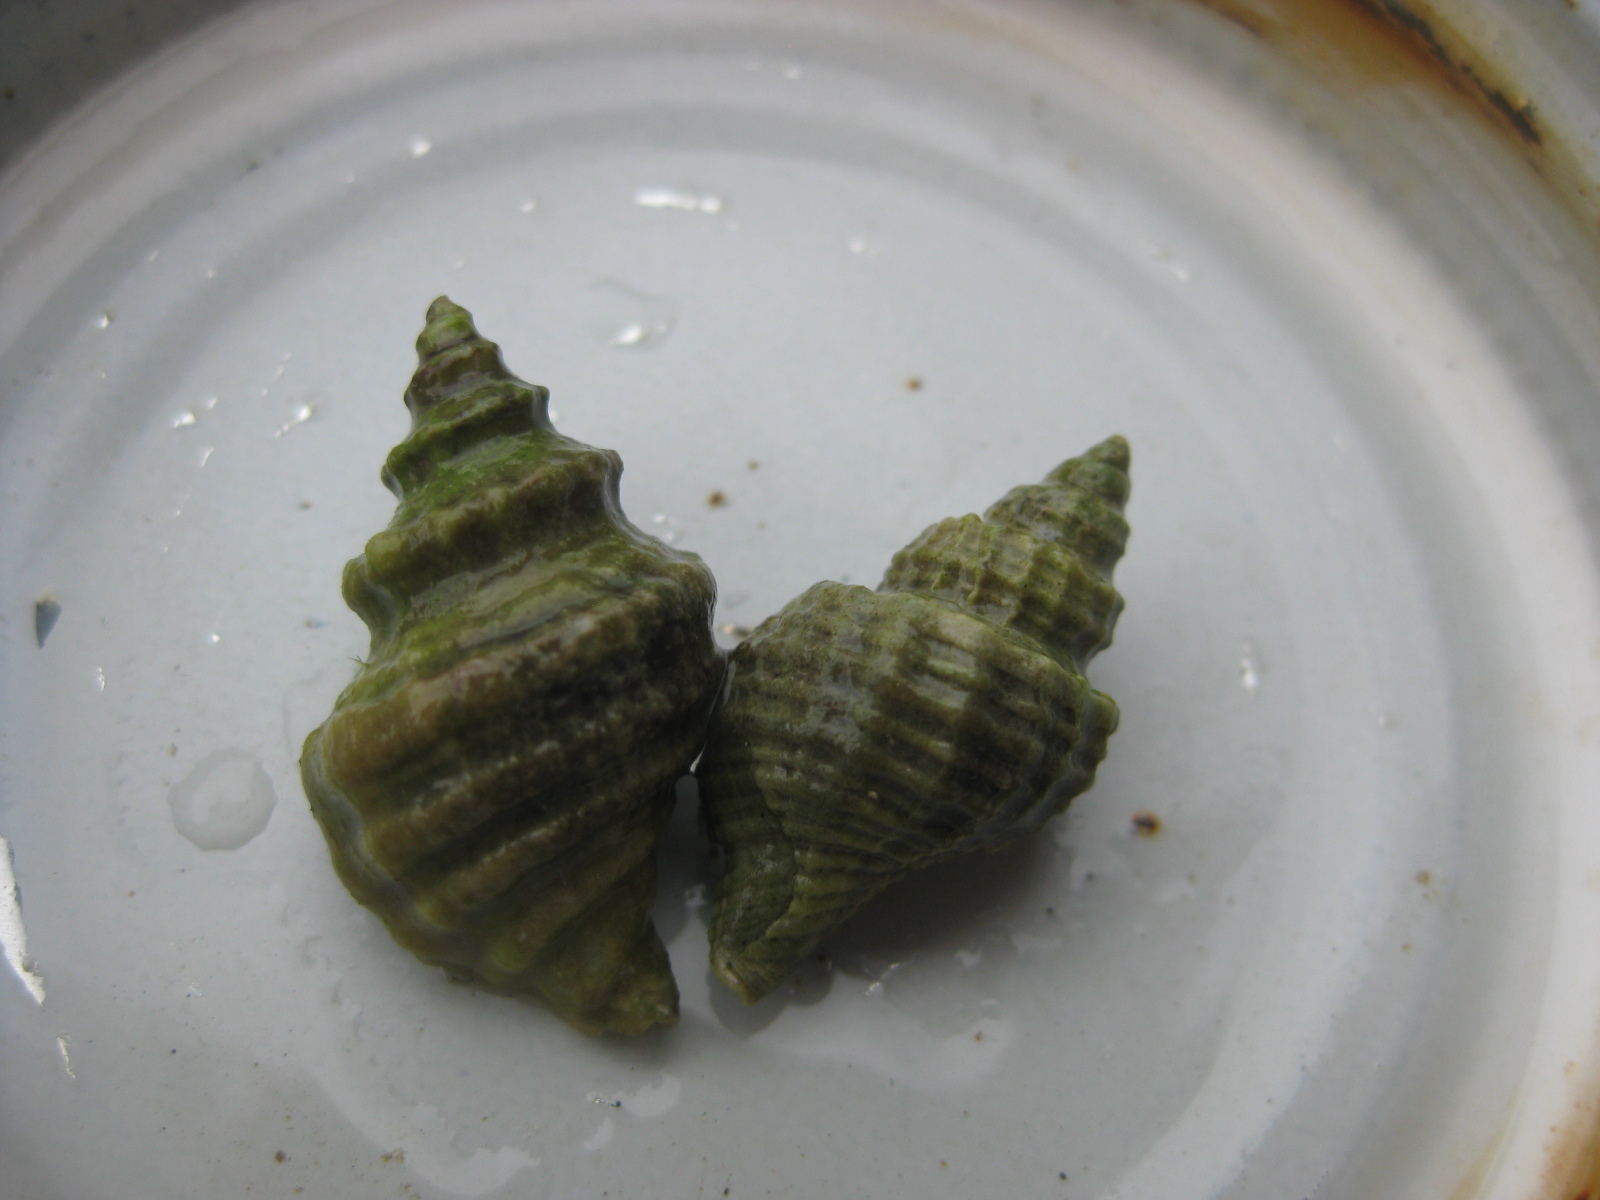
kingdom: Animalia
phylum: Mollusca
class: Gastropoda
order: Neogastropoda
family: Muricidae
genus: Paratrophon
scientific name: Paratrophon quoyi
